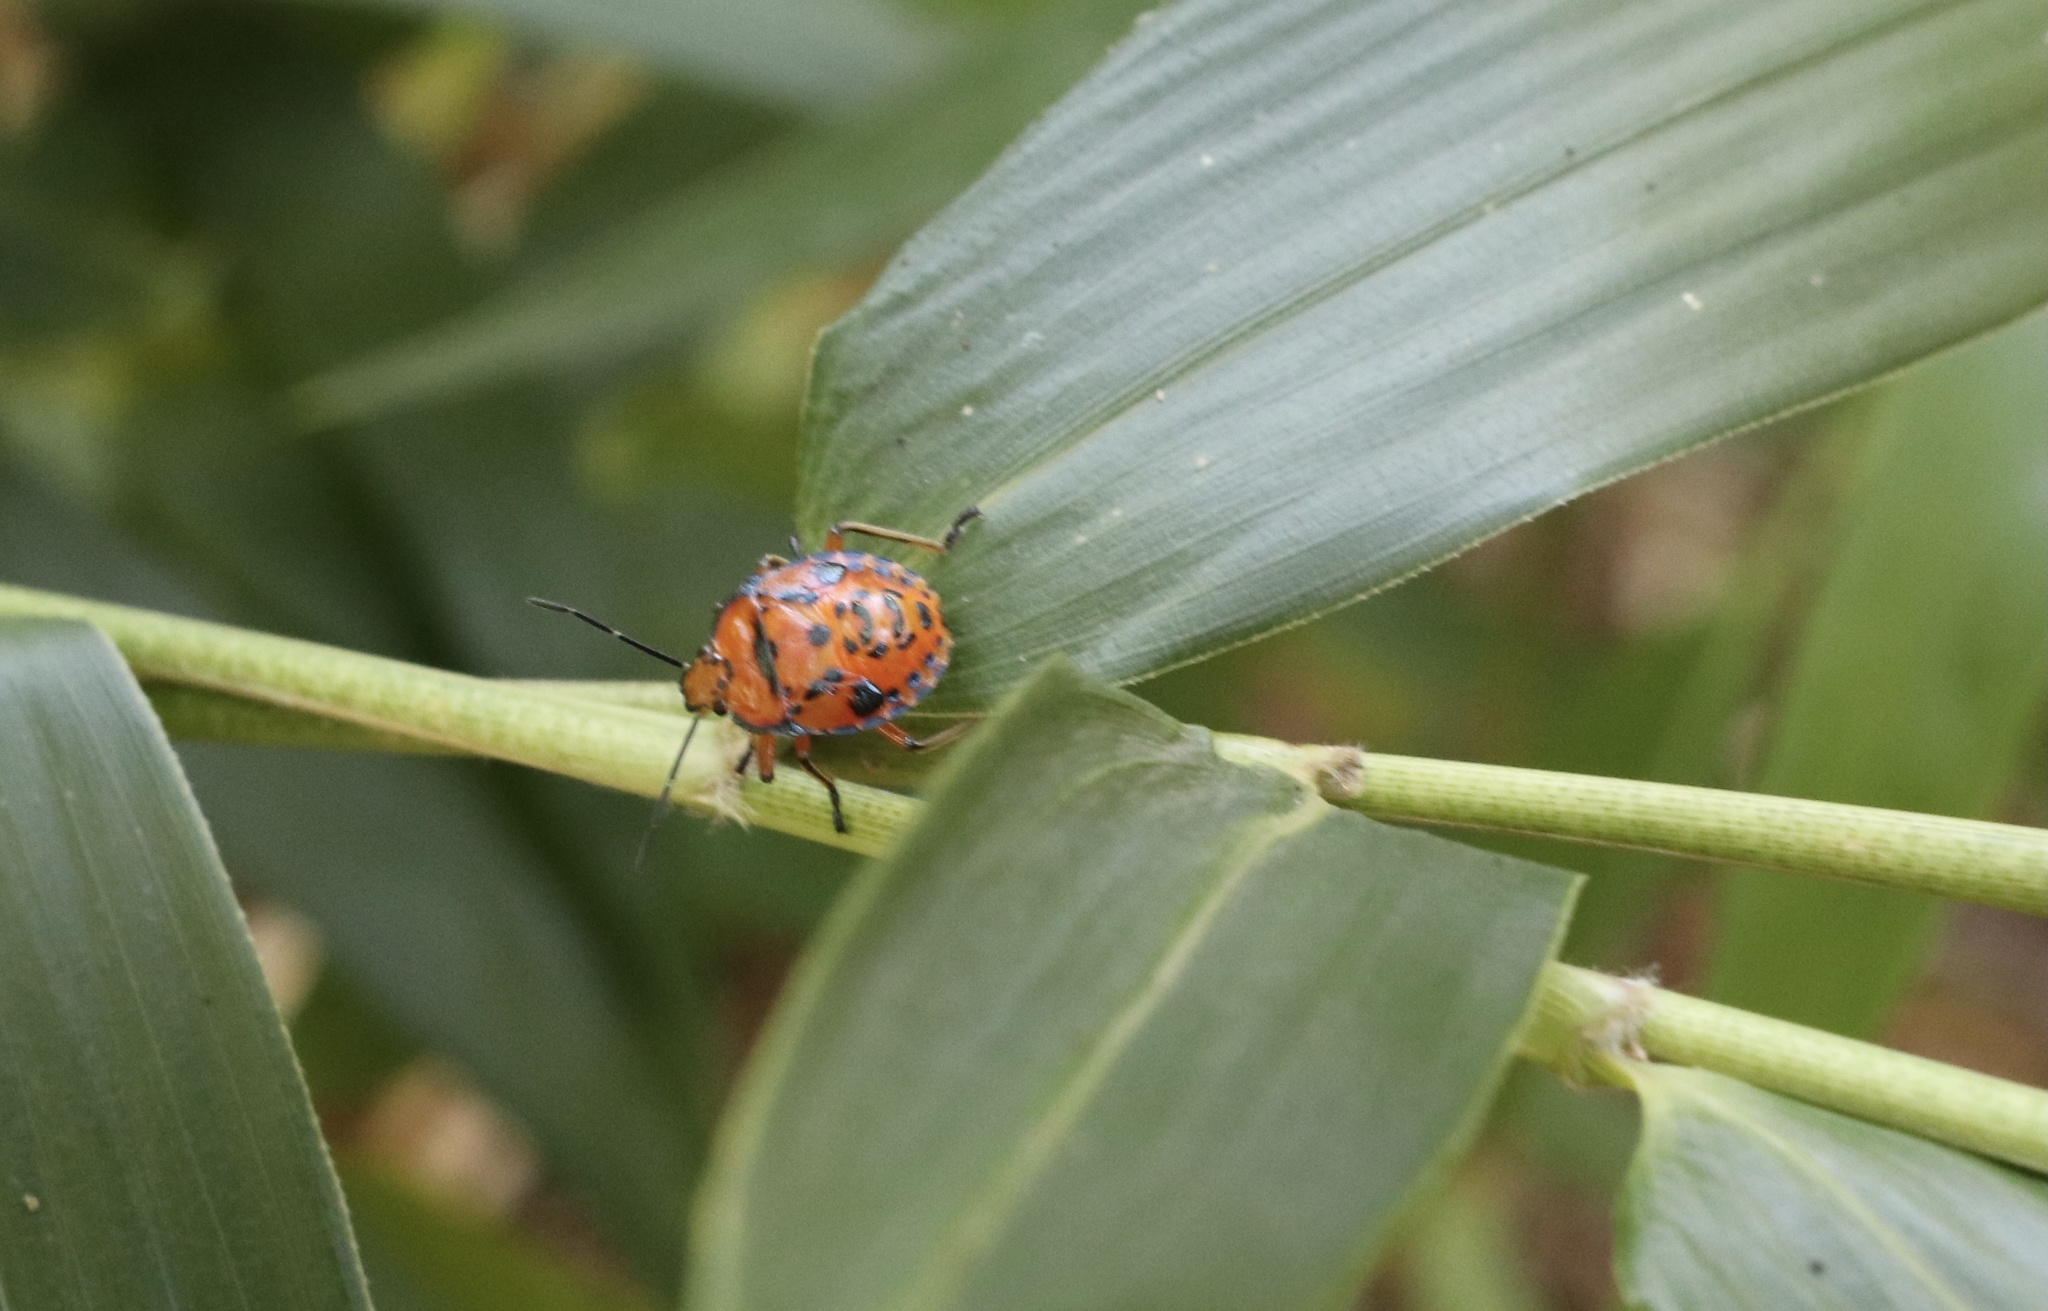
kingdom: Animalia
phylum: Arthropoda
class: Insecta
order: Hemiptera
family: Pentatomidae
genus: Brontocoris
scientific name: Brontocoris
